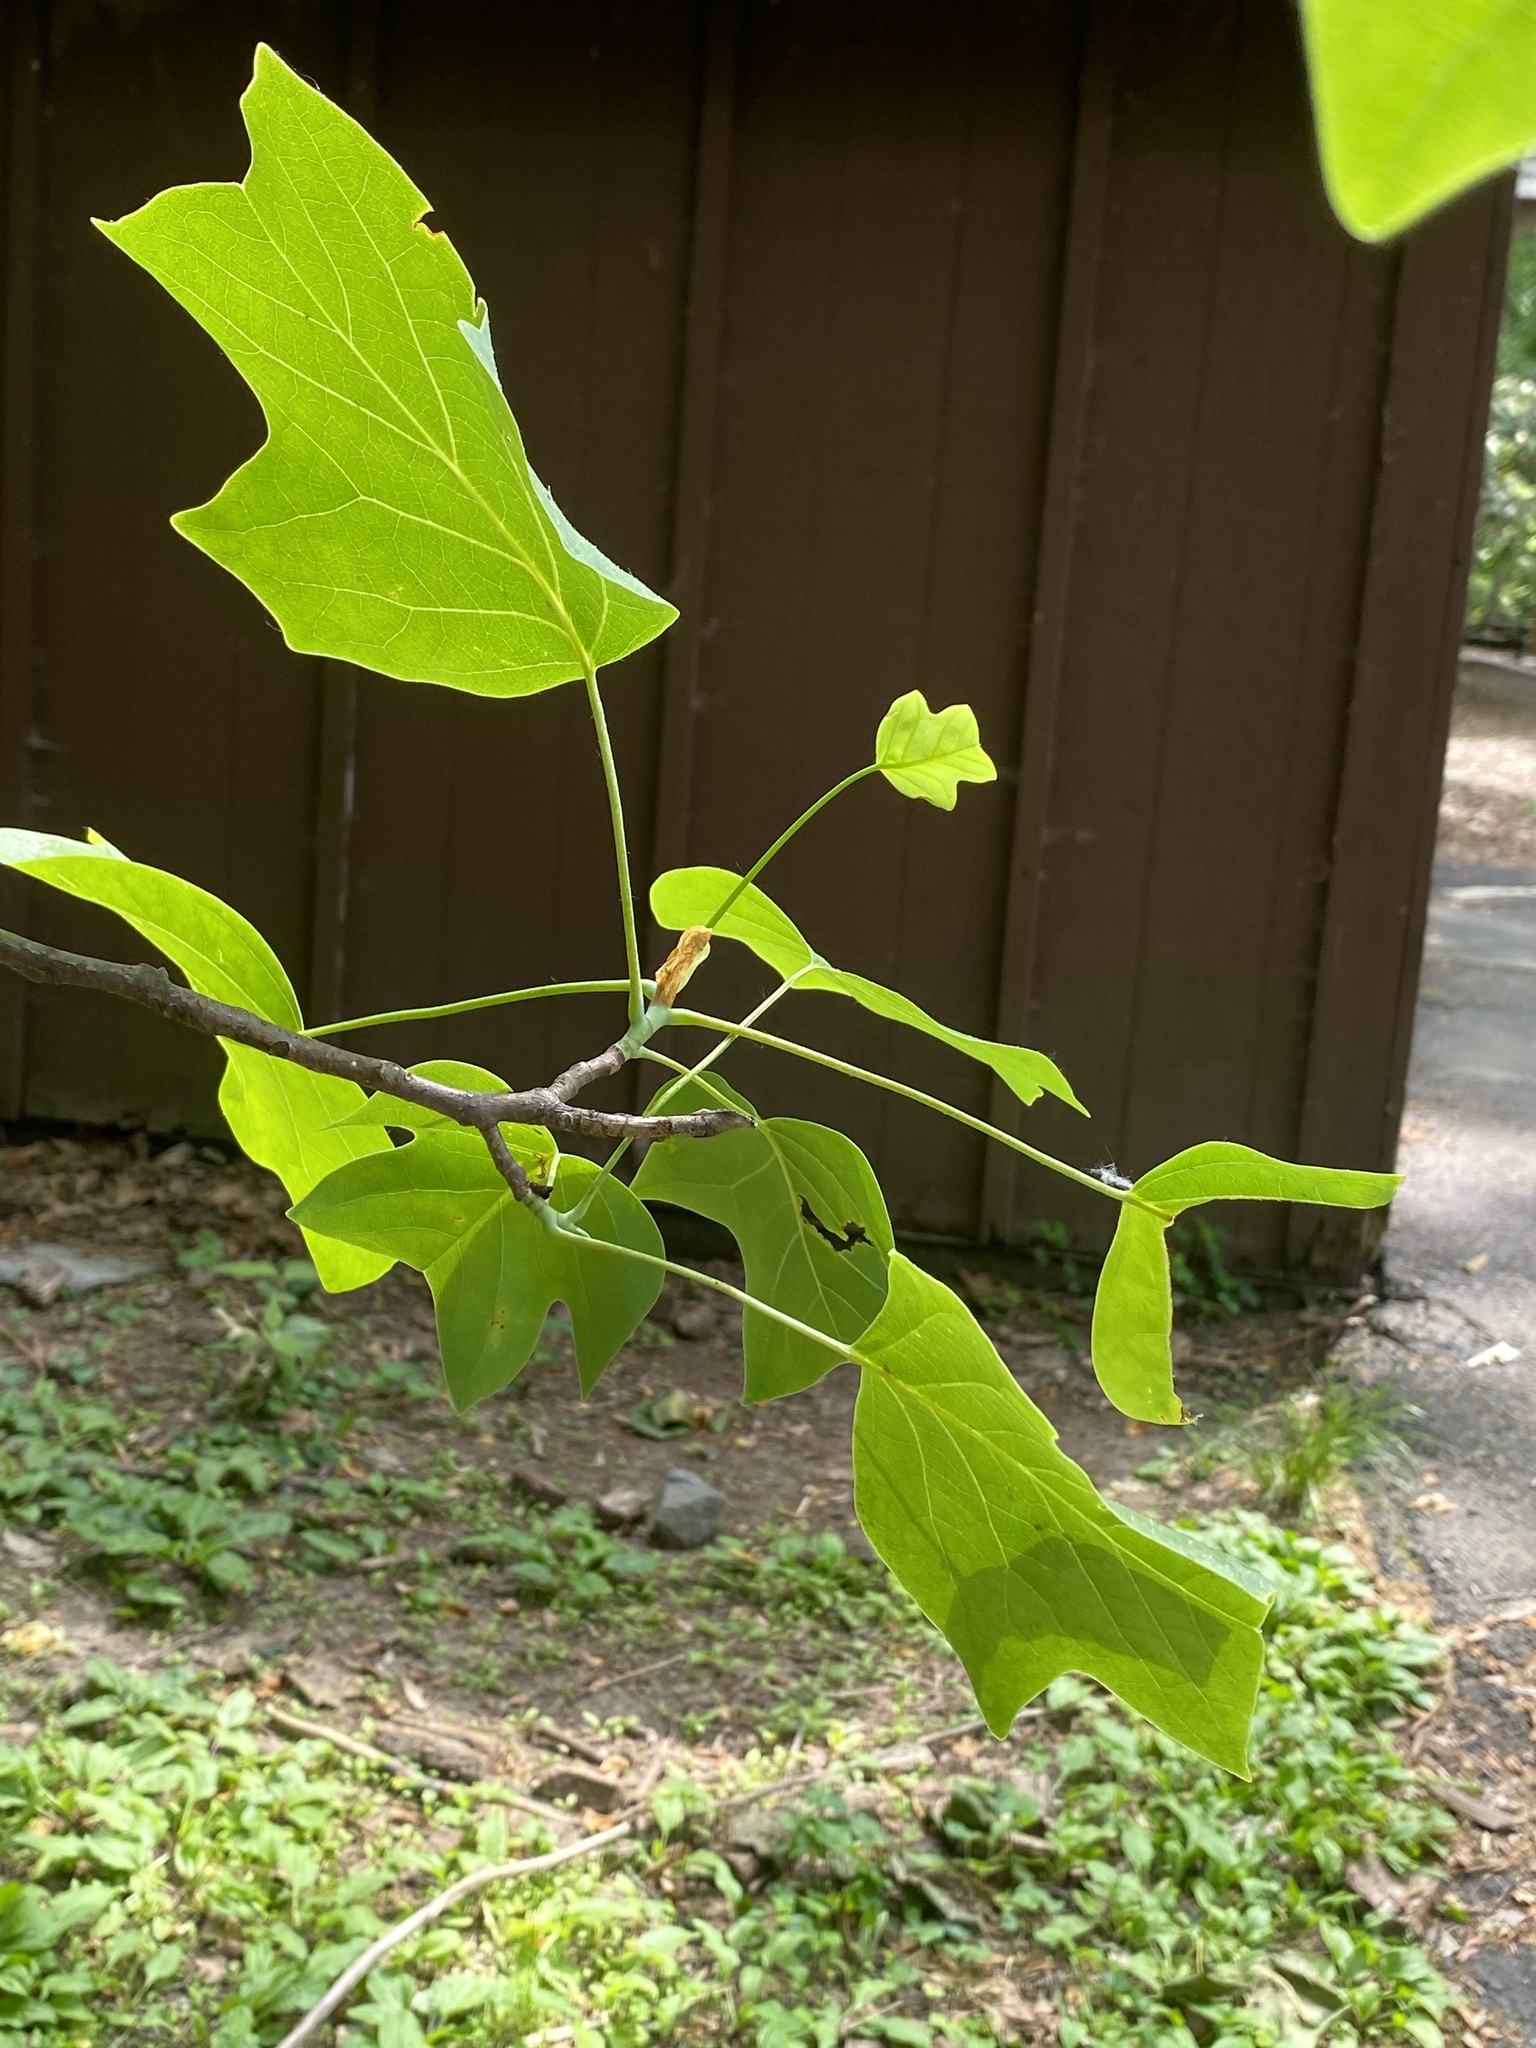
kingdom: Plantae
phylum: Tracheophyta
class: Magnoliopsida
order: Magnoliales
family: Magnoliaceae
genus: Liriodendron
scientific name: Liriodendron tulipifera
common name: Tulip tree
